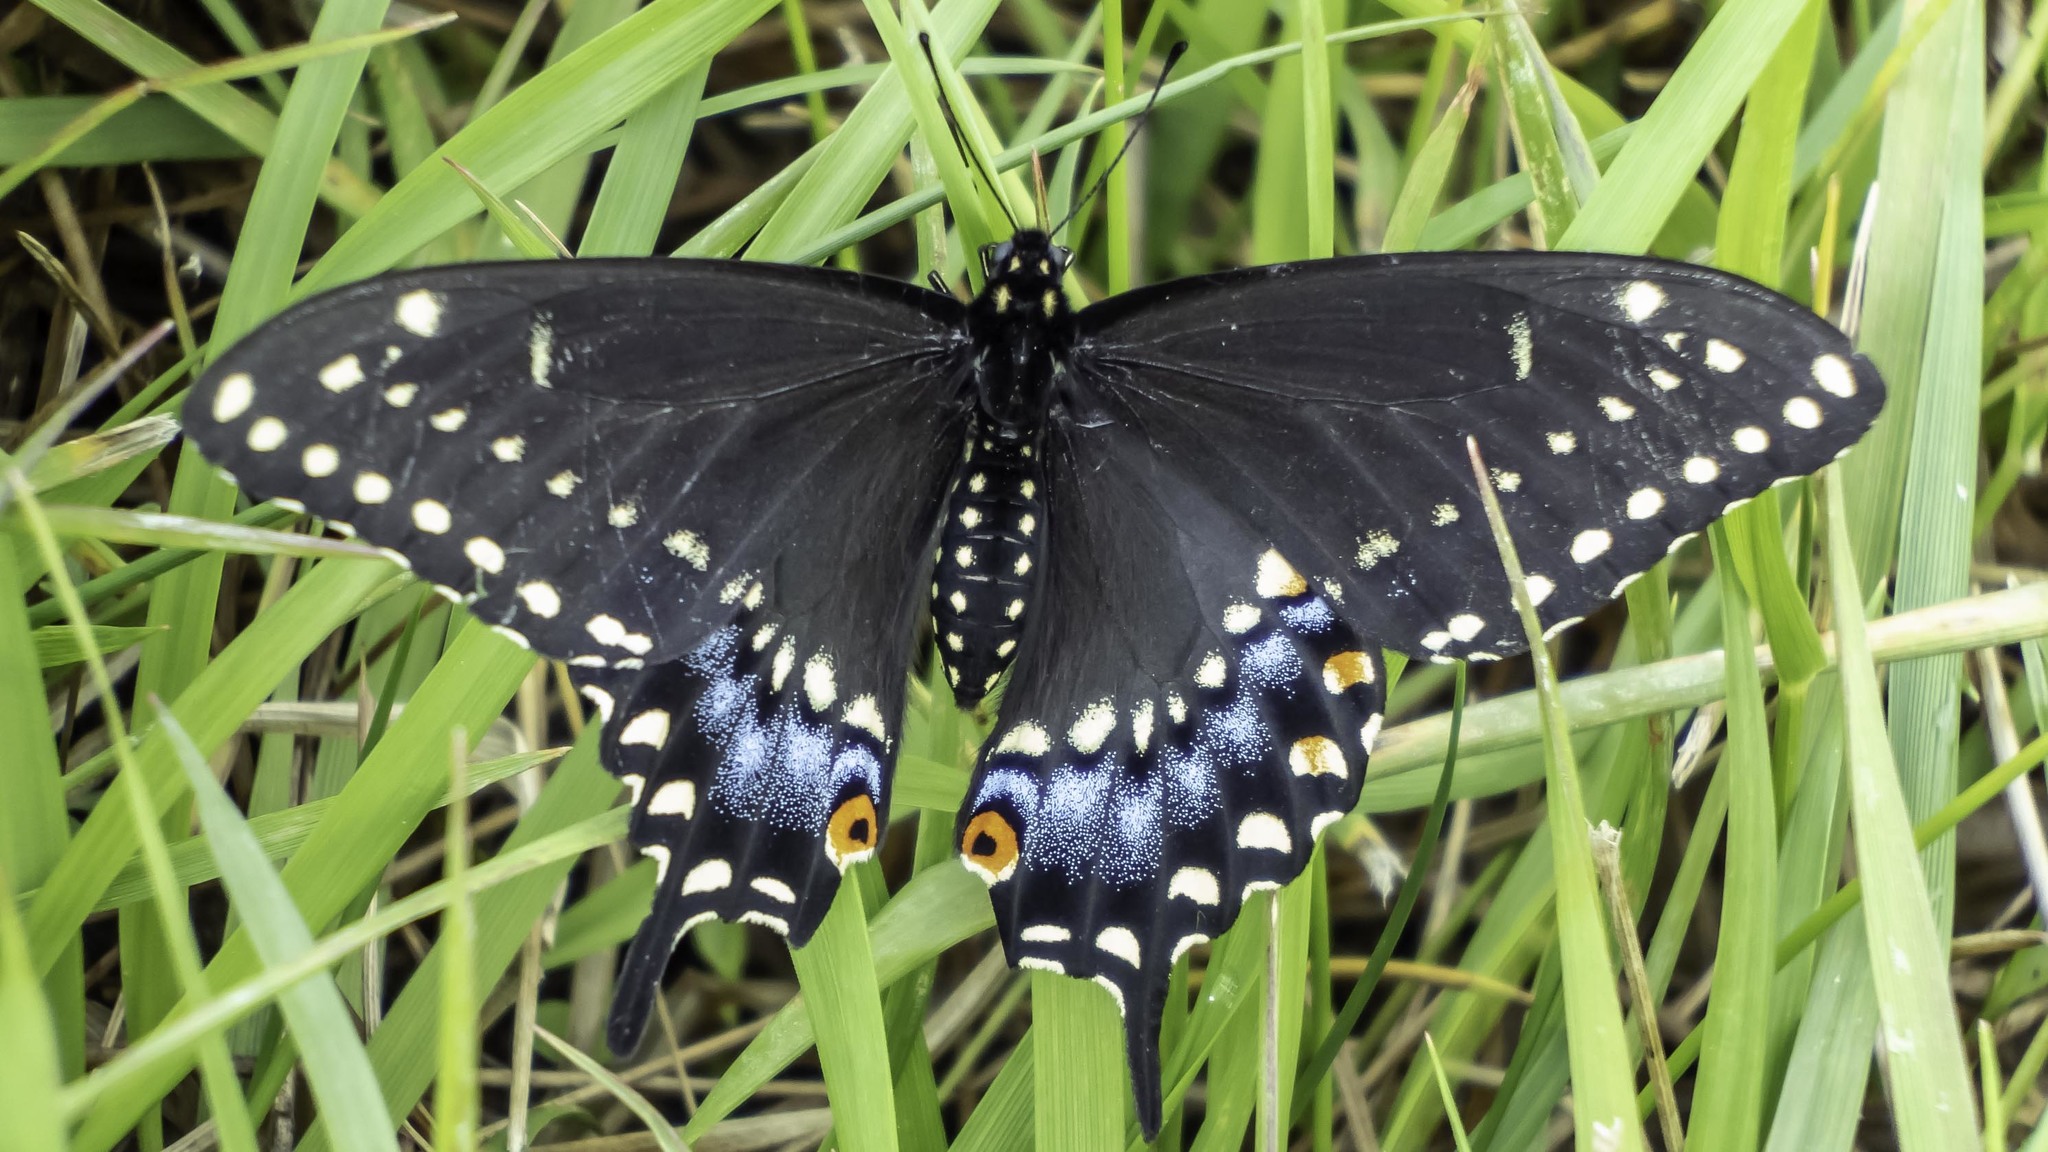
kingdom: Animalia
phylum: Arthropoda
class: Insecta
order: Lepidoptera
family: Papilionidae
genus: Papilio
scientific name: Papilio polyxenes
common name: Black swallowtail
